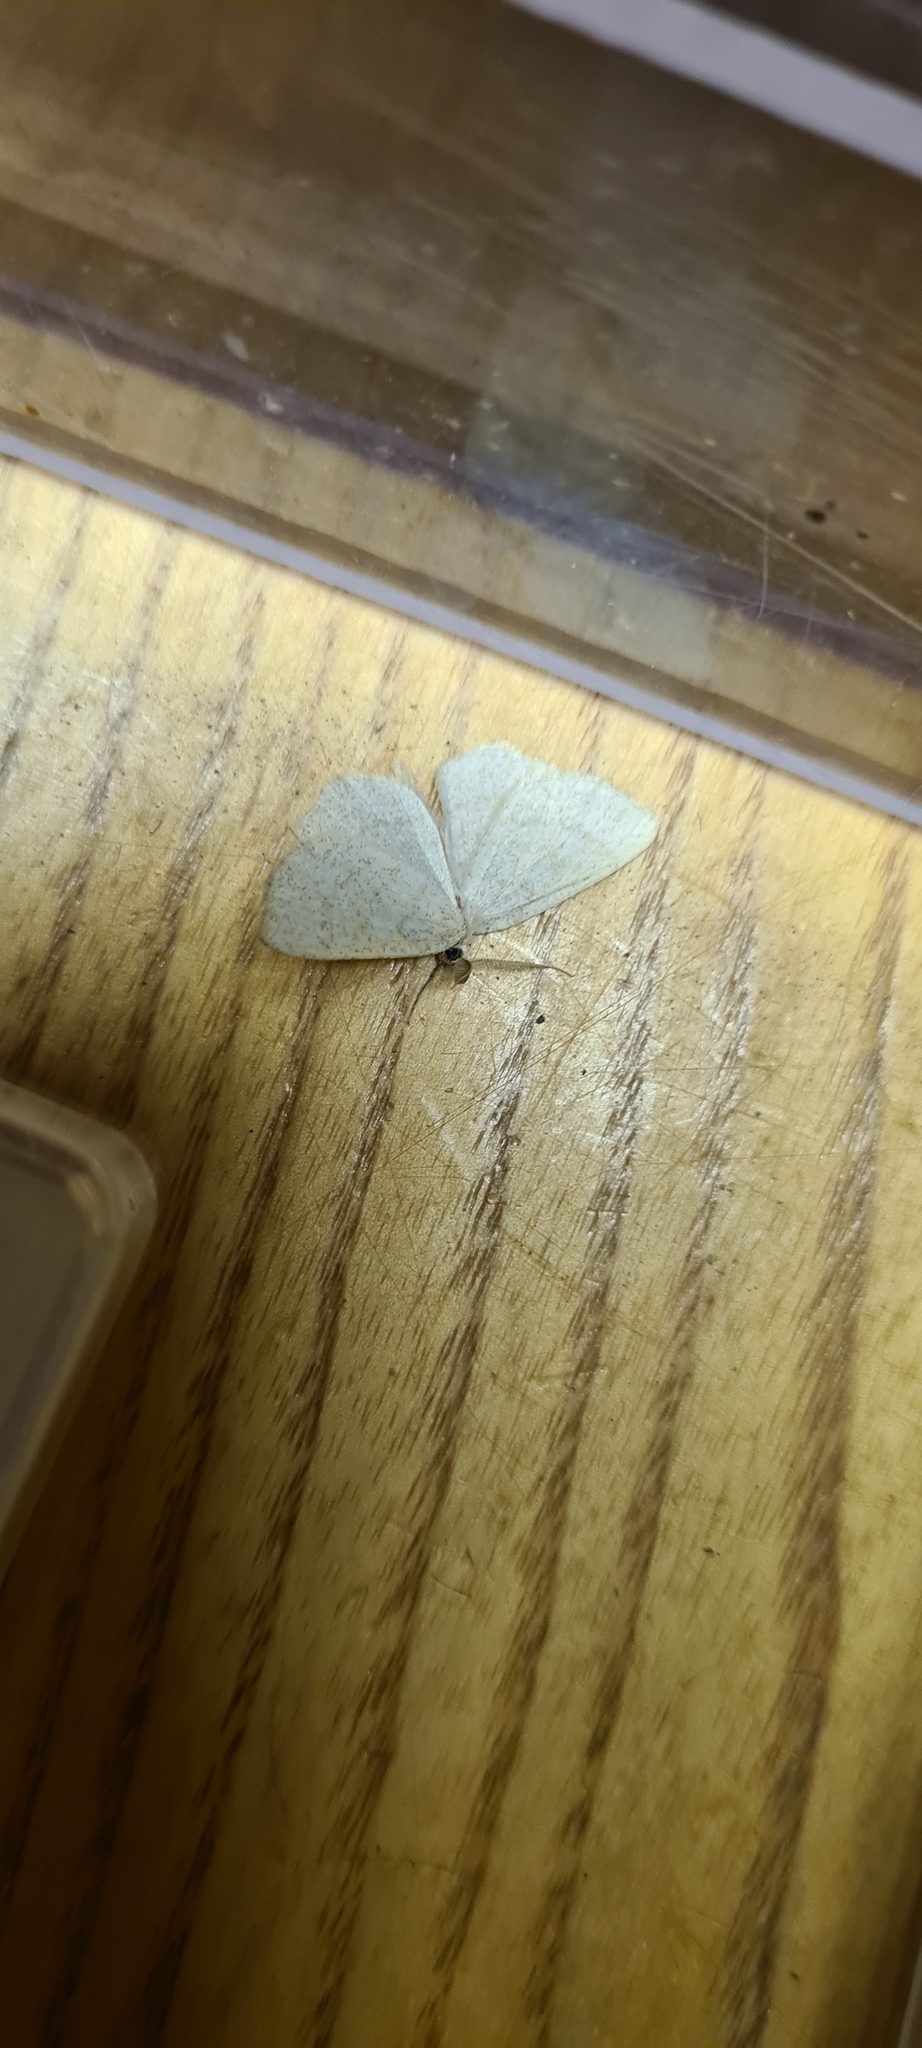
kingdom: Animalia
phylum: Arthropoda
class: Insecta
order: Lepidoptera
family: Geometridae
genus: Cabera
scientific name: Cabera exanthemata
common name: Common wave
